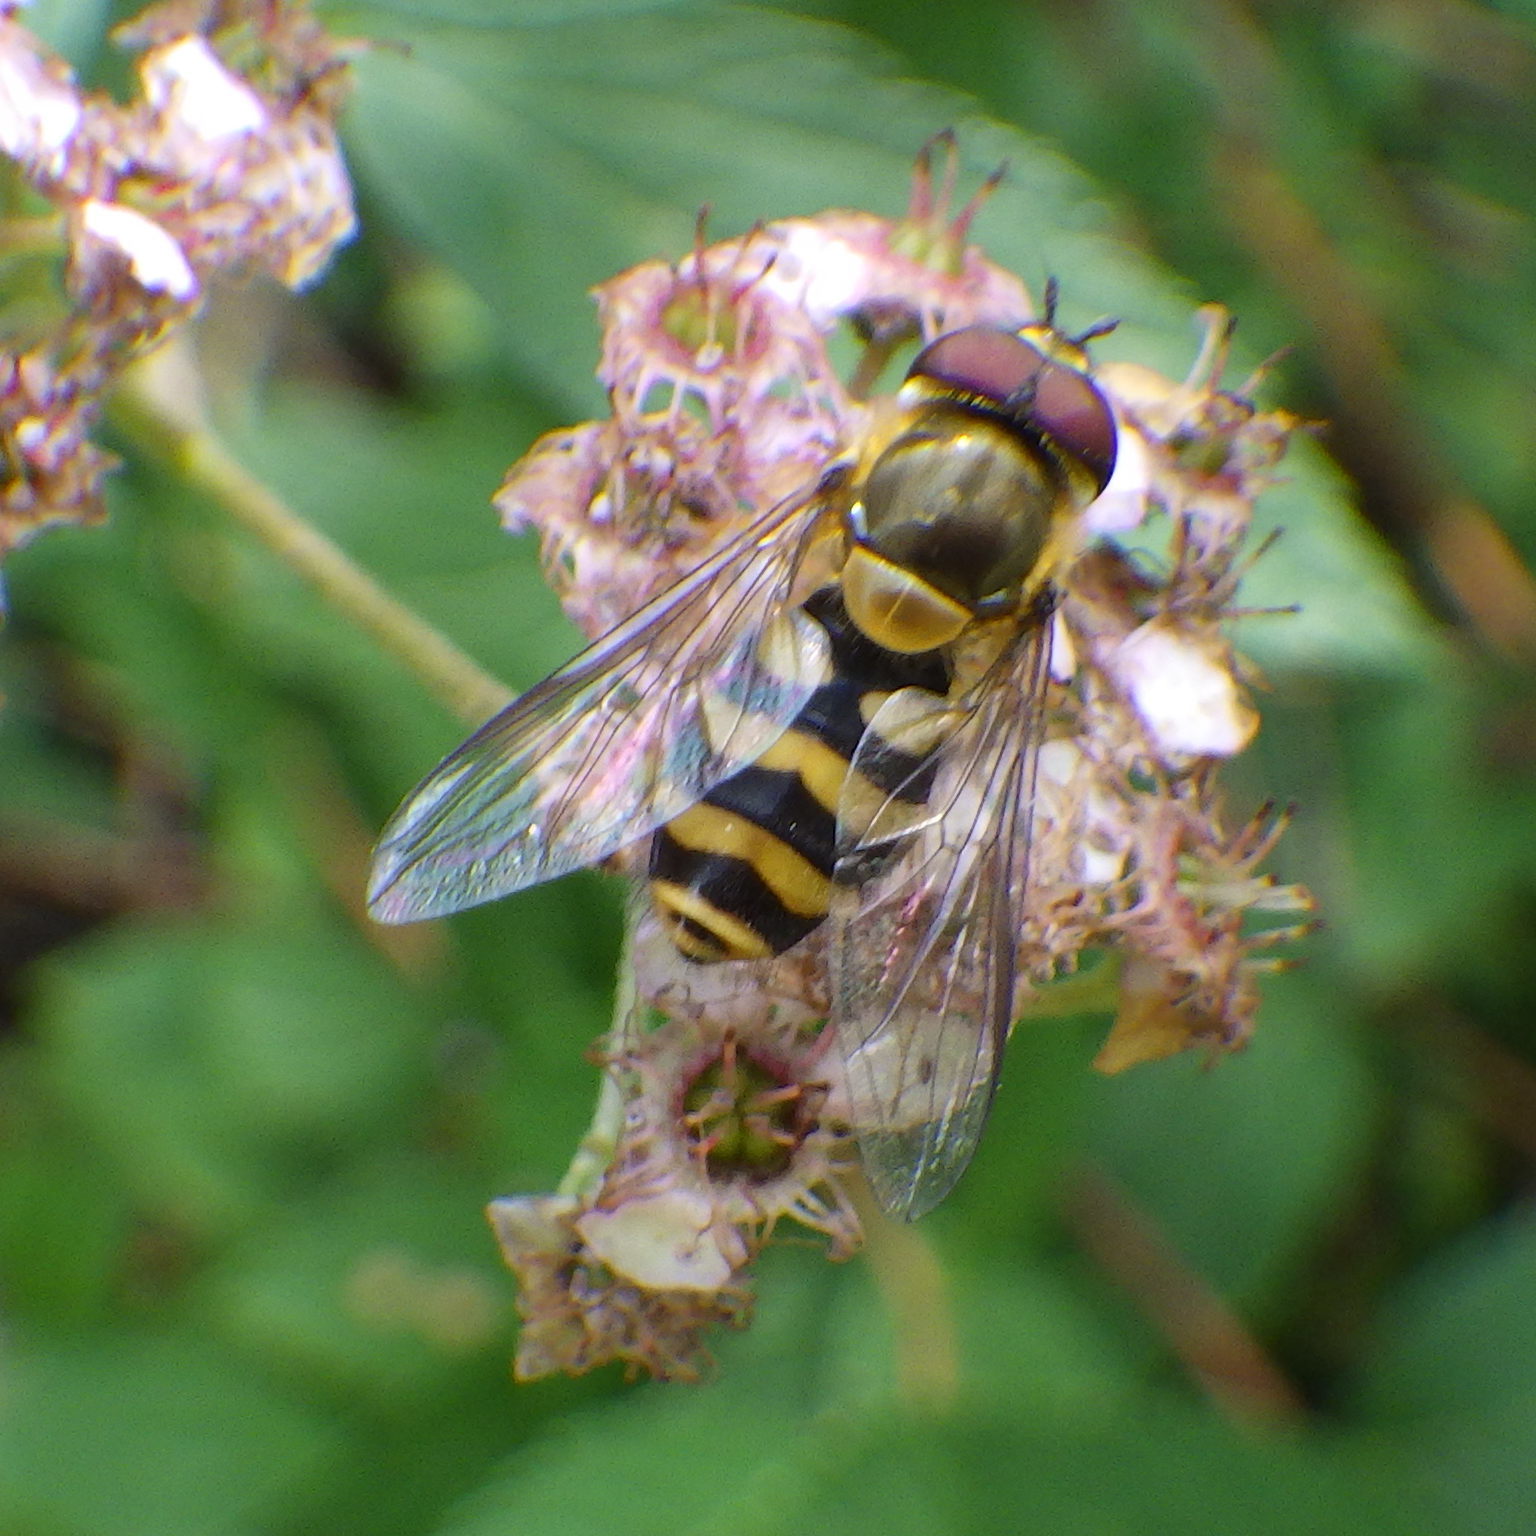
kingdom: Animalia
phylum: Arthropoda
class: Insecta
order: Diptera
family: Syrphidae
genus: Syrphus
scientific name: Syrphus
